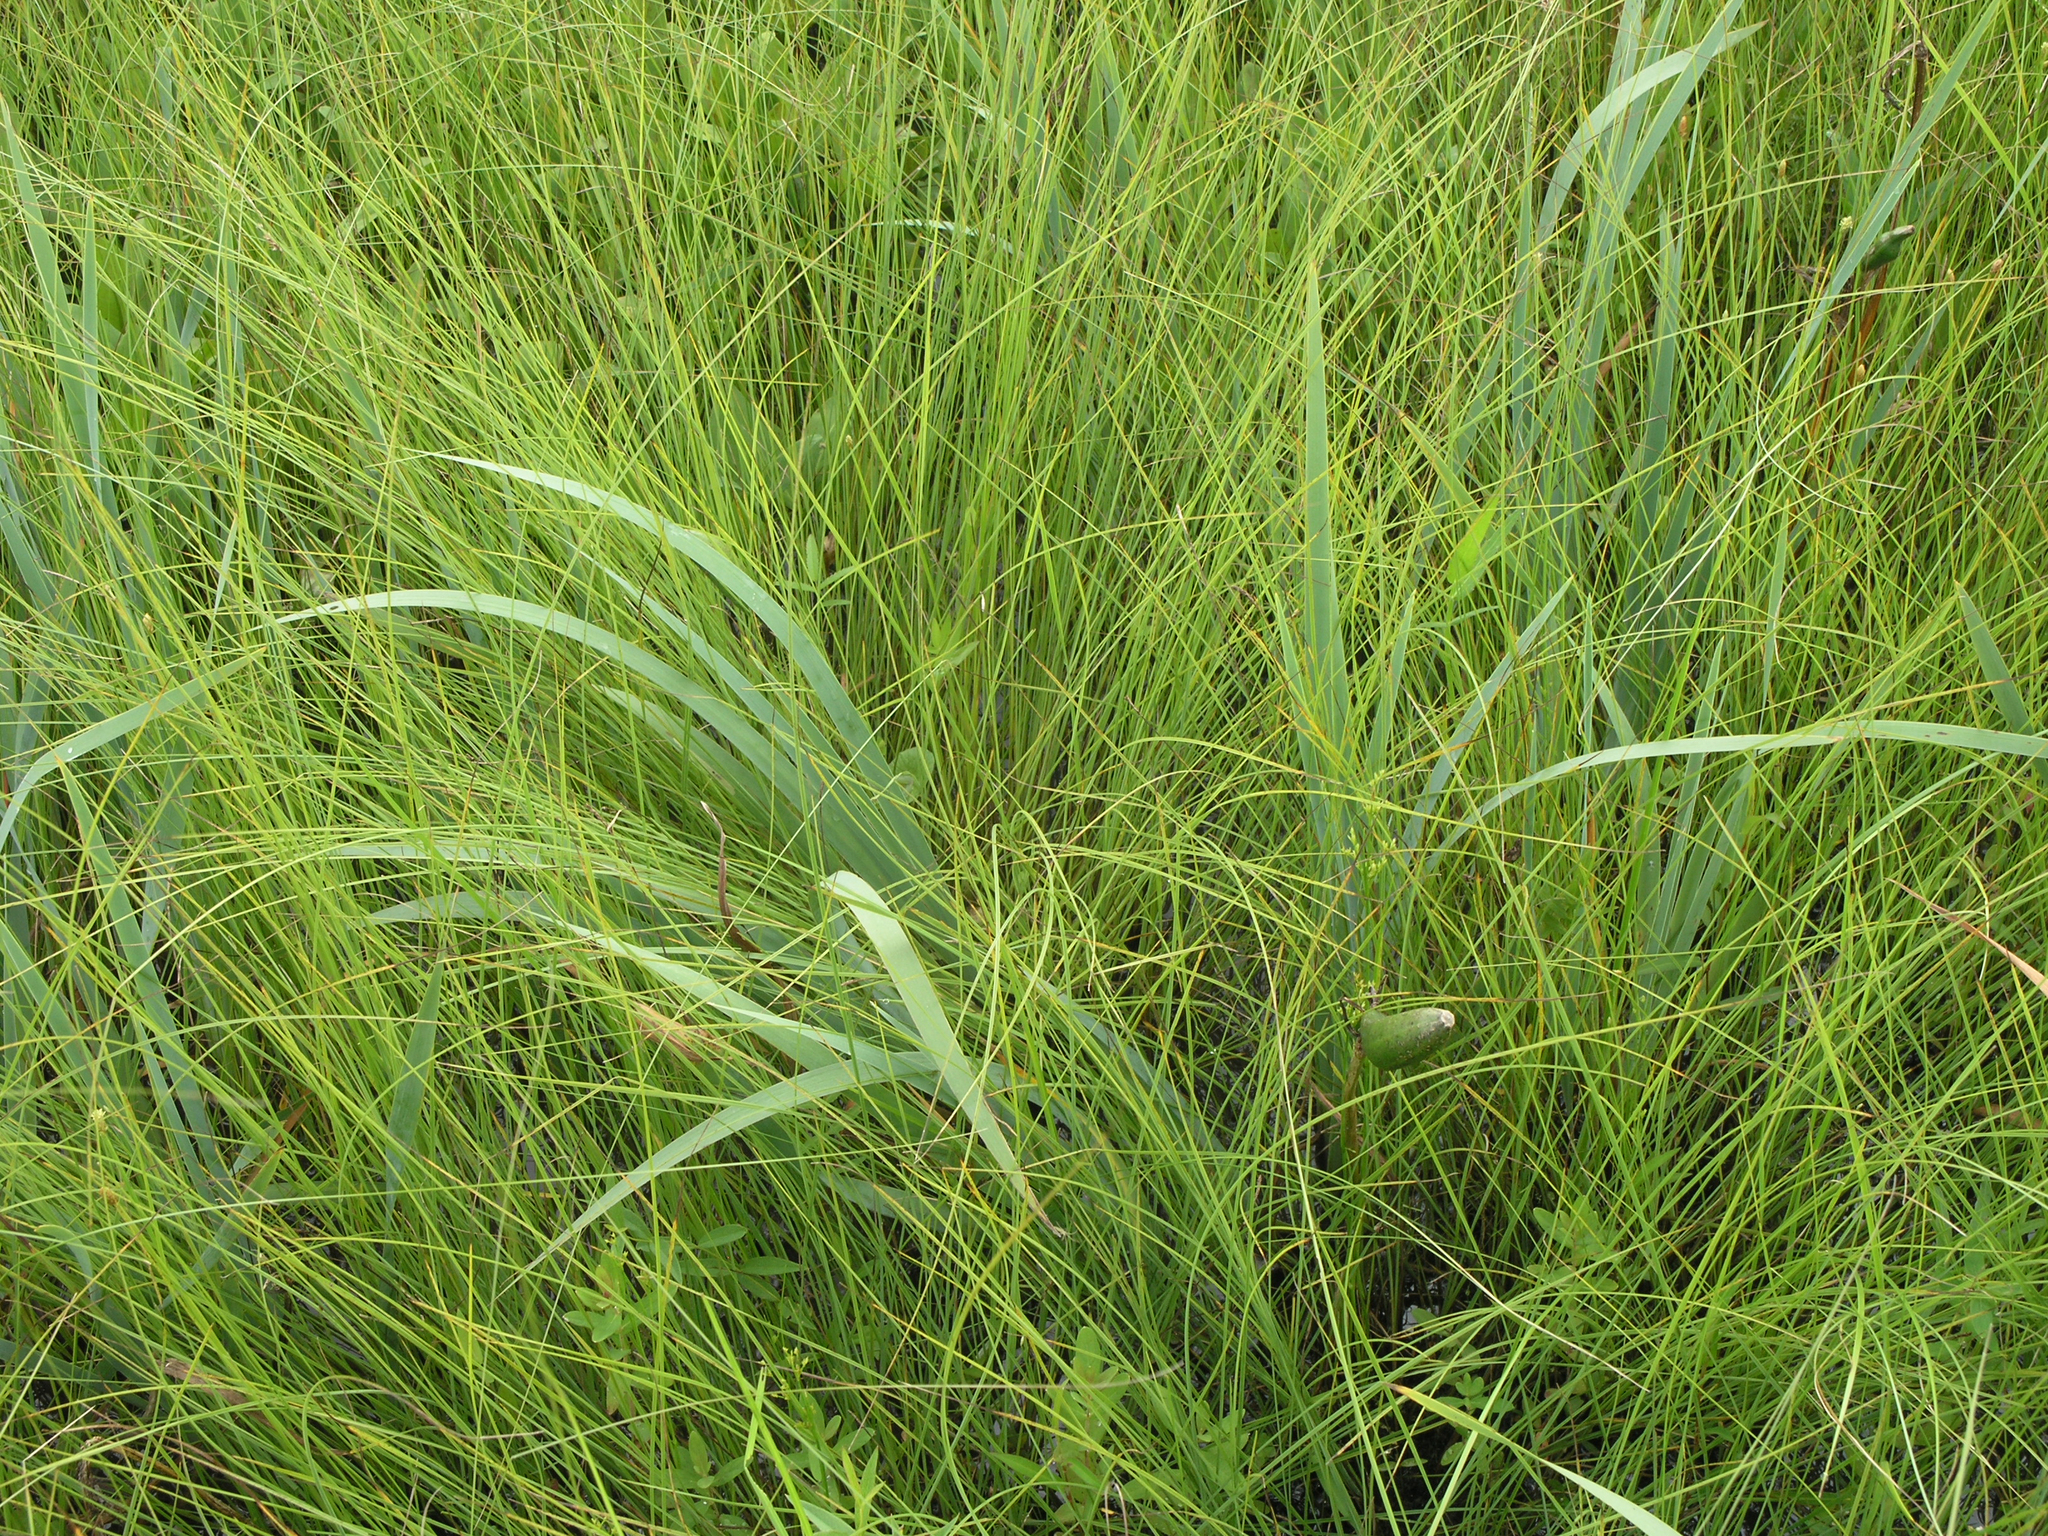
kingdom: Plantae
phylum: Tracheophyta
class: Liliopsida
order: Asparagales
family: Iridaceae
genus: Iris
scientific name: Iris laevigata
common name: Japanese iris
